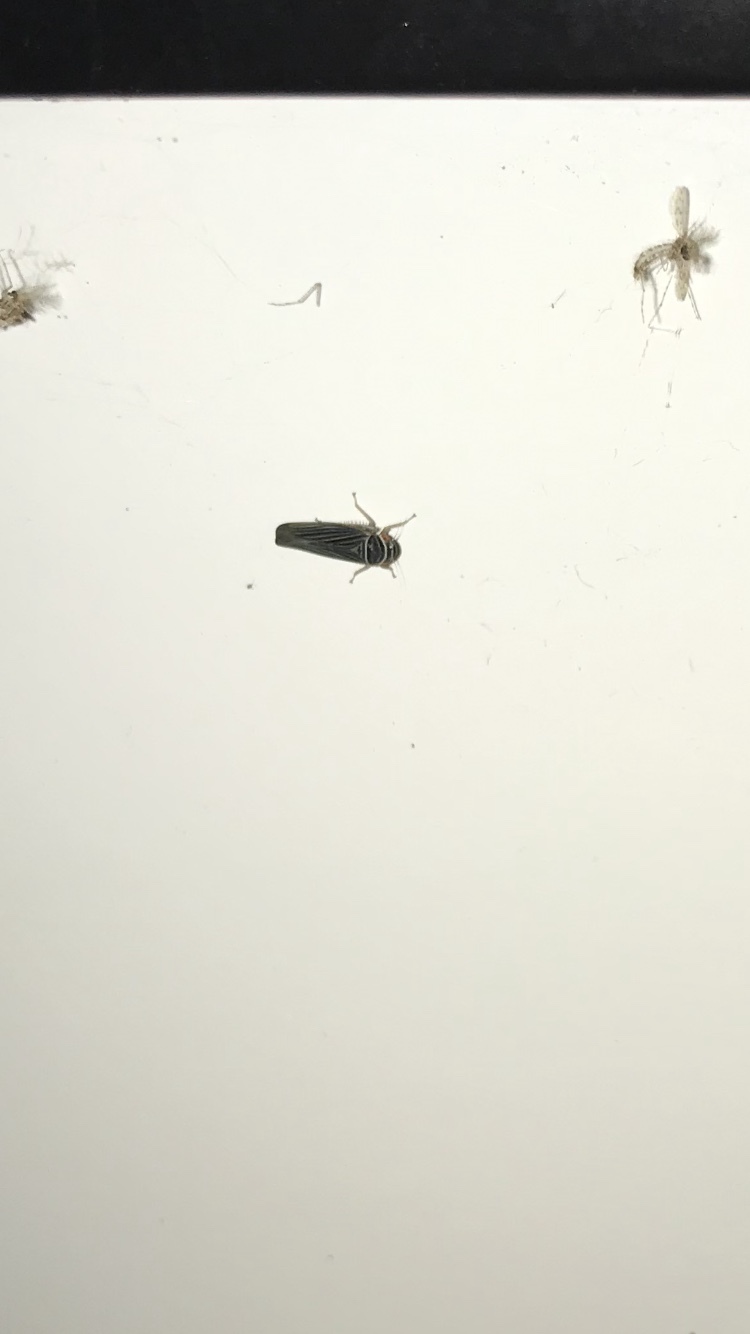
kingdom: Animalia
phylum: Arthropoda
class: Insecta
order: Hemiptera
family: Cicadellidae
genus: Tylozygus
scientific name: Tylozygus bifidus
